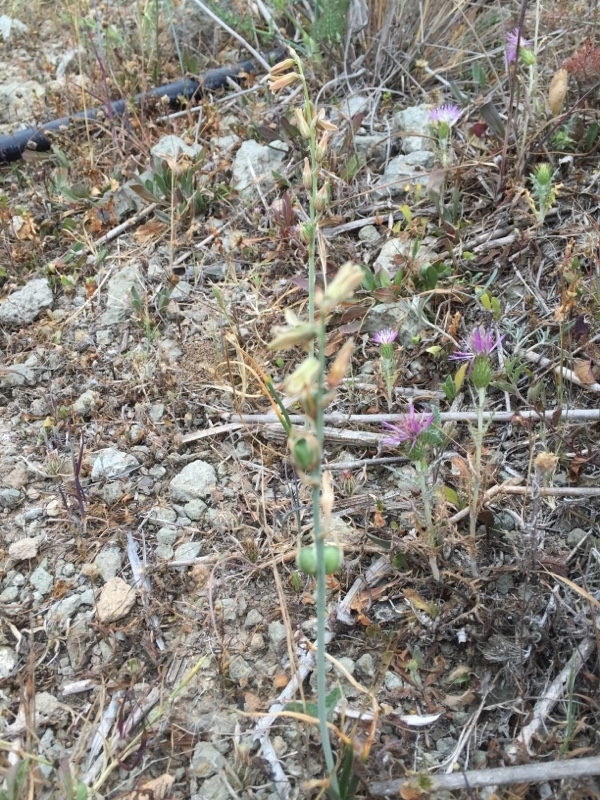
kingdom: Plantae
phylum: Tracheophyta
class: Liliopsida
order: Asparagales
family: Asparagaceae
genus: Dipcadi
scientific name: Dipcadi serotinum
